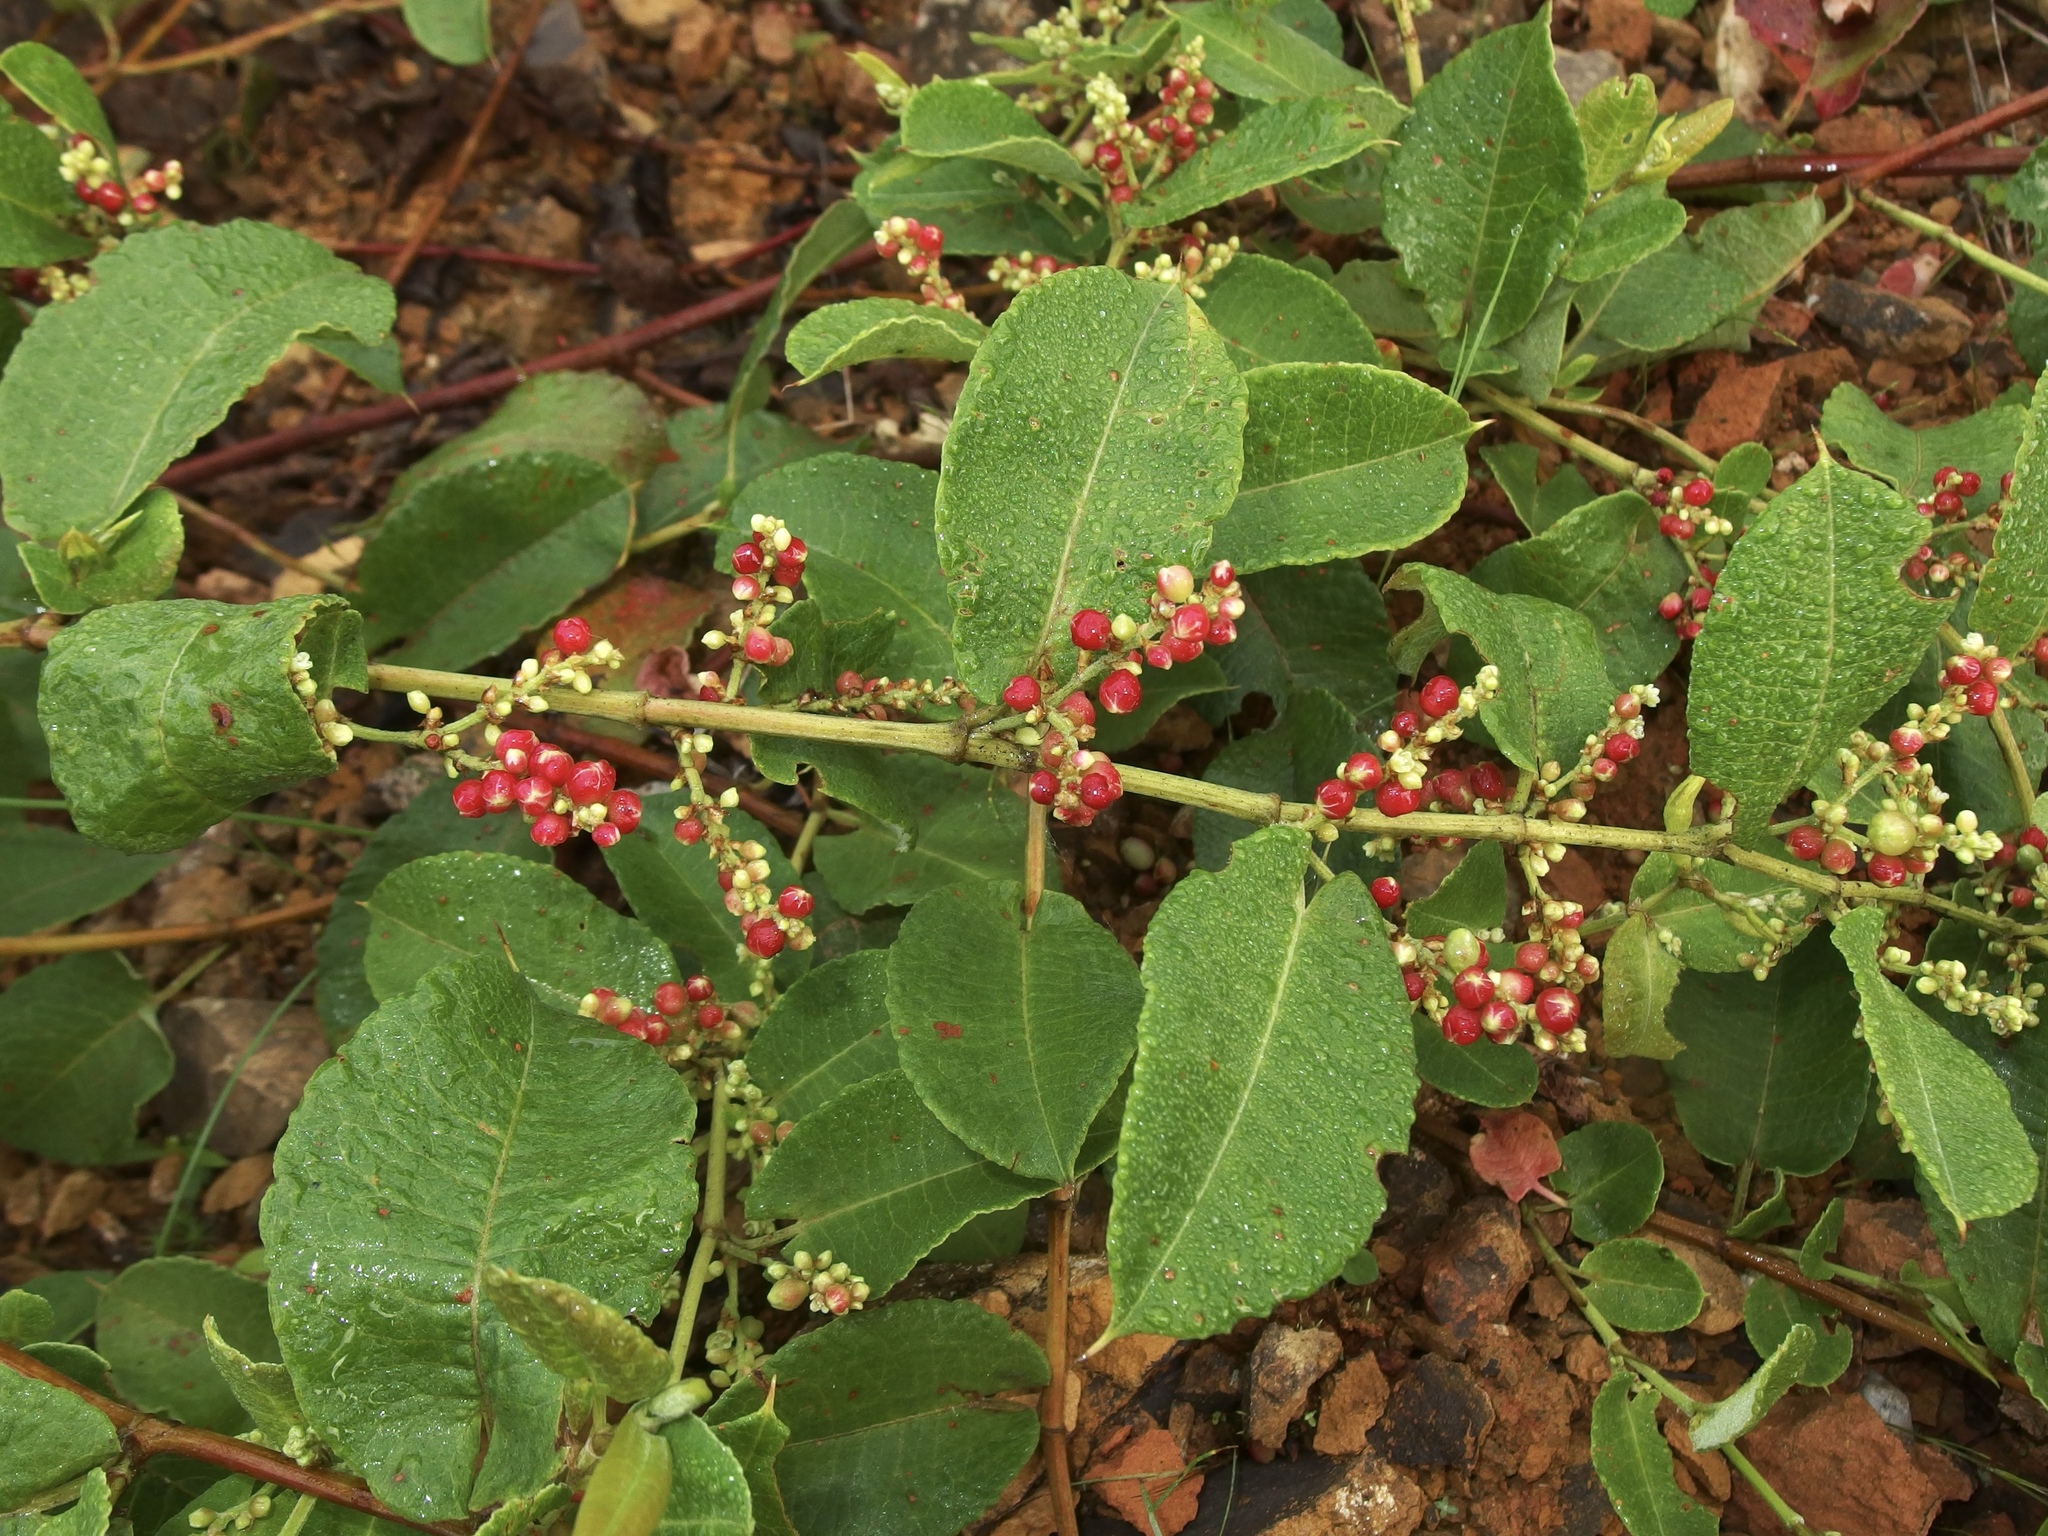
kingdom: Plantae
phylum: Tracheophyta
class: Magnoliopsida
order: Caryophyllales
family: Polygonaceae
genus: Muehlenbeckia
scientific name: Muehlenbeckia tamnifolia
